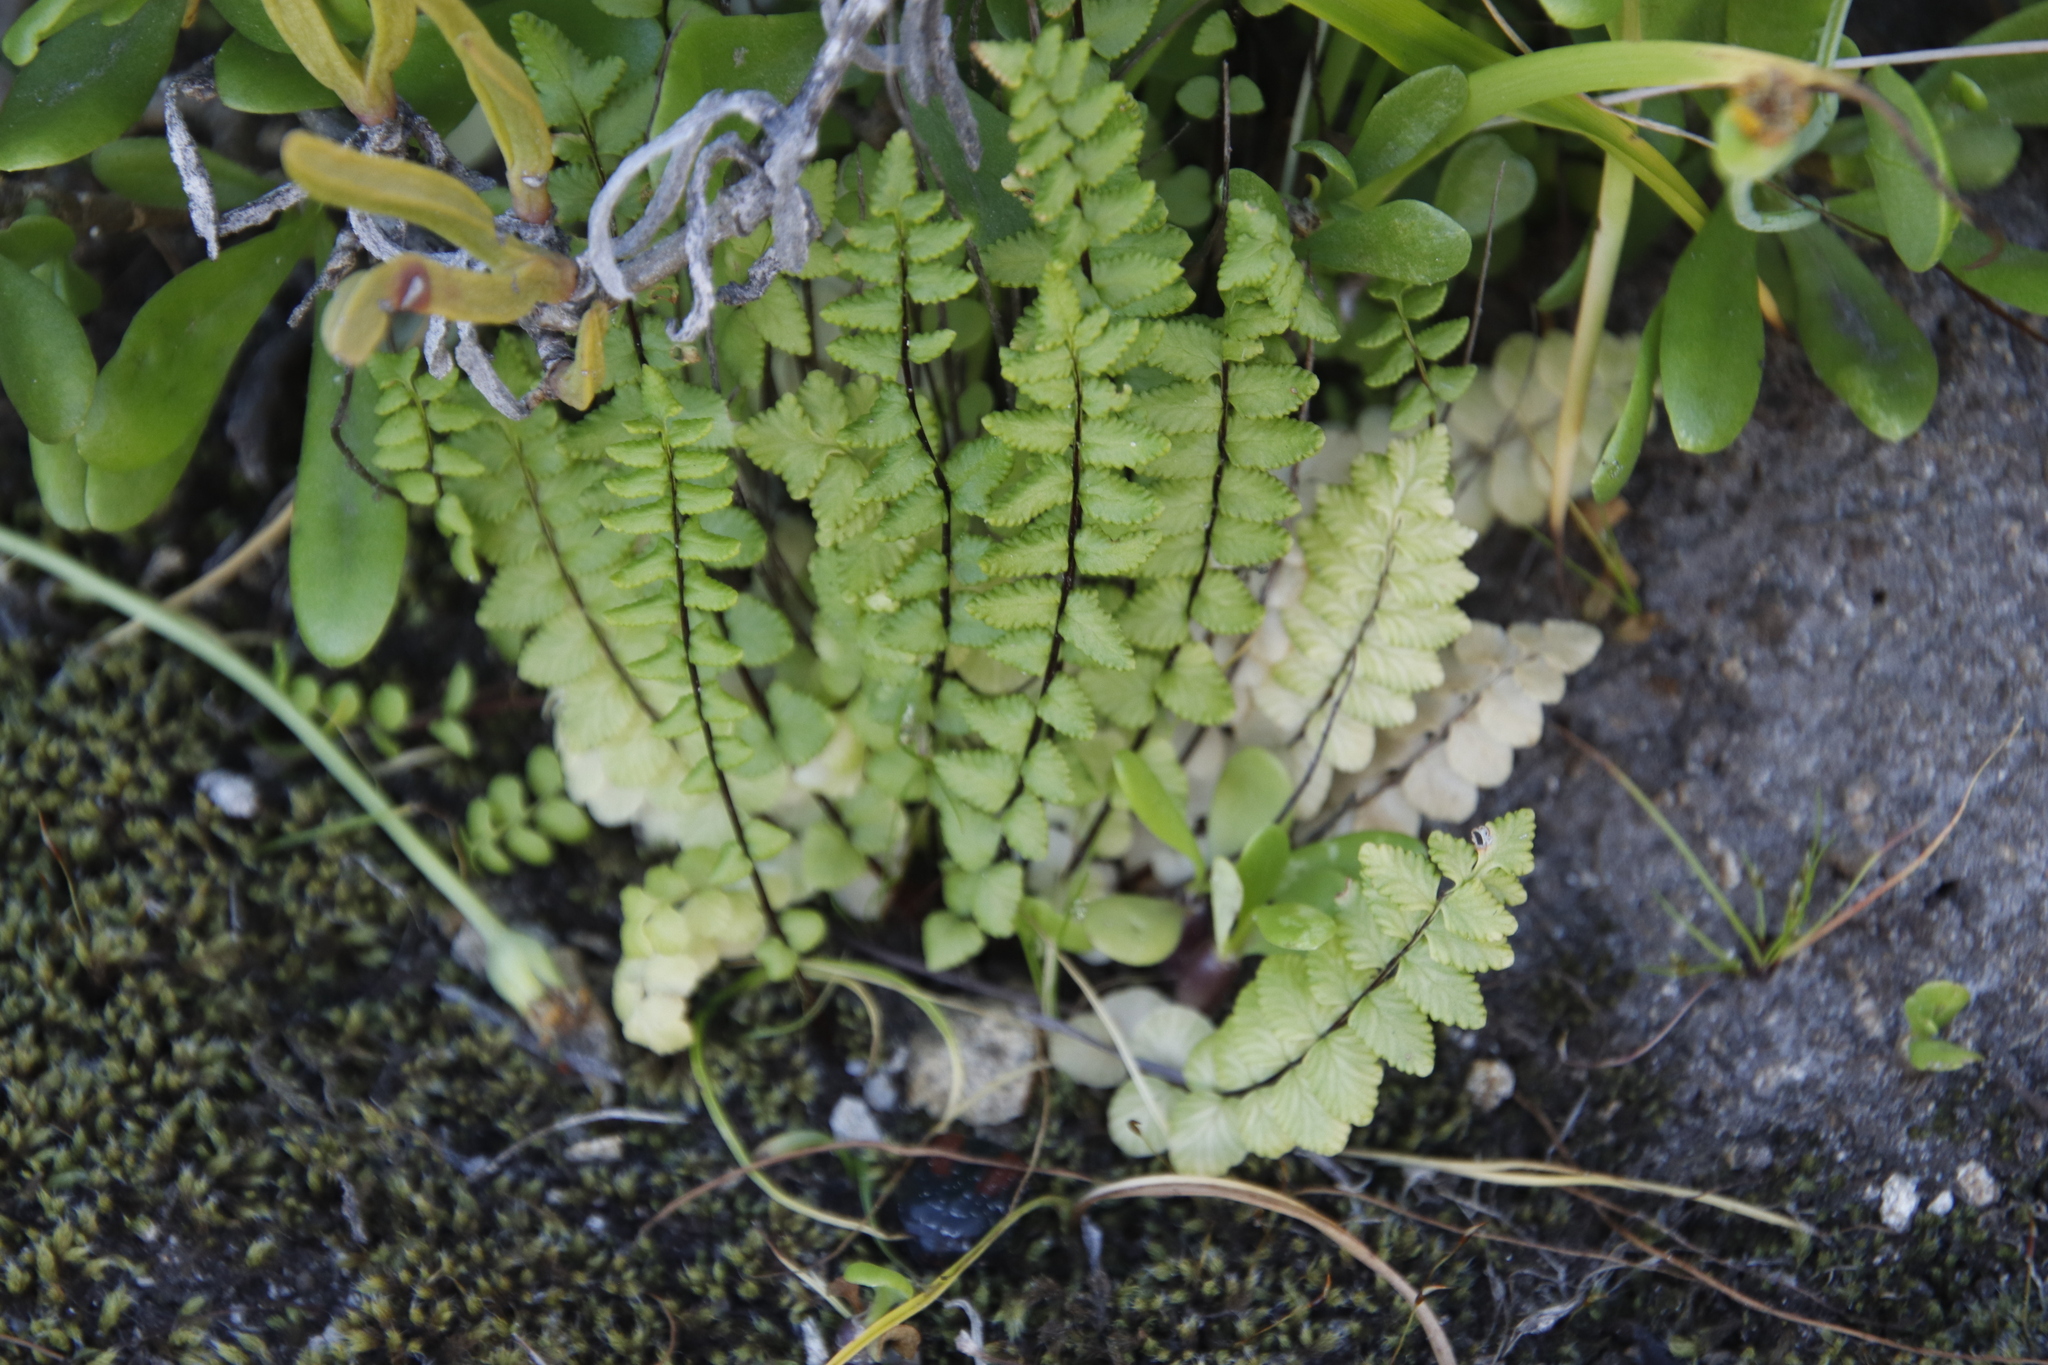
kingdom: Plantae
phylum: Tracheophyta
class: Polypodiopsida
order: Polypodiales
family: Pteridaceae
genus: Cheilanthes
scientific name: Cheilanthes hastata
